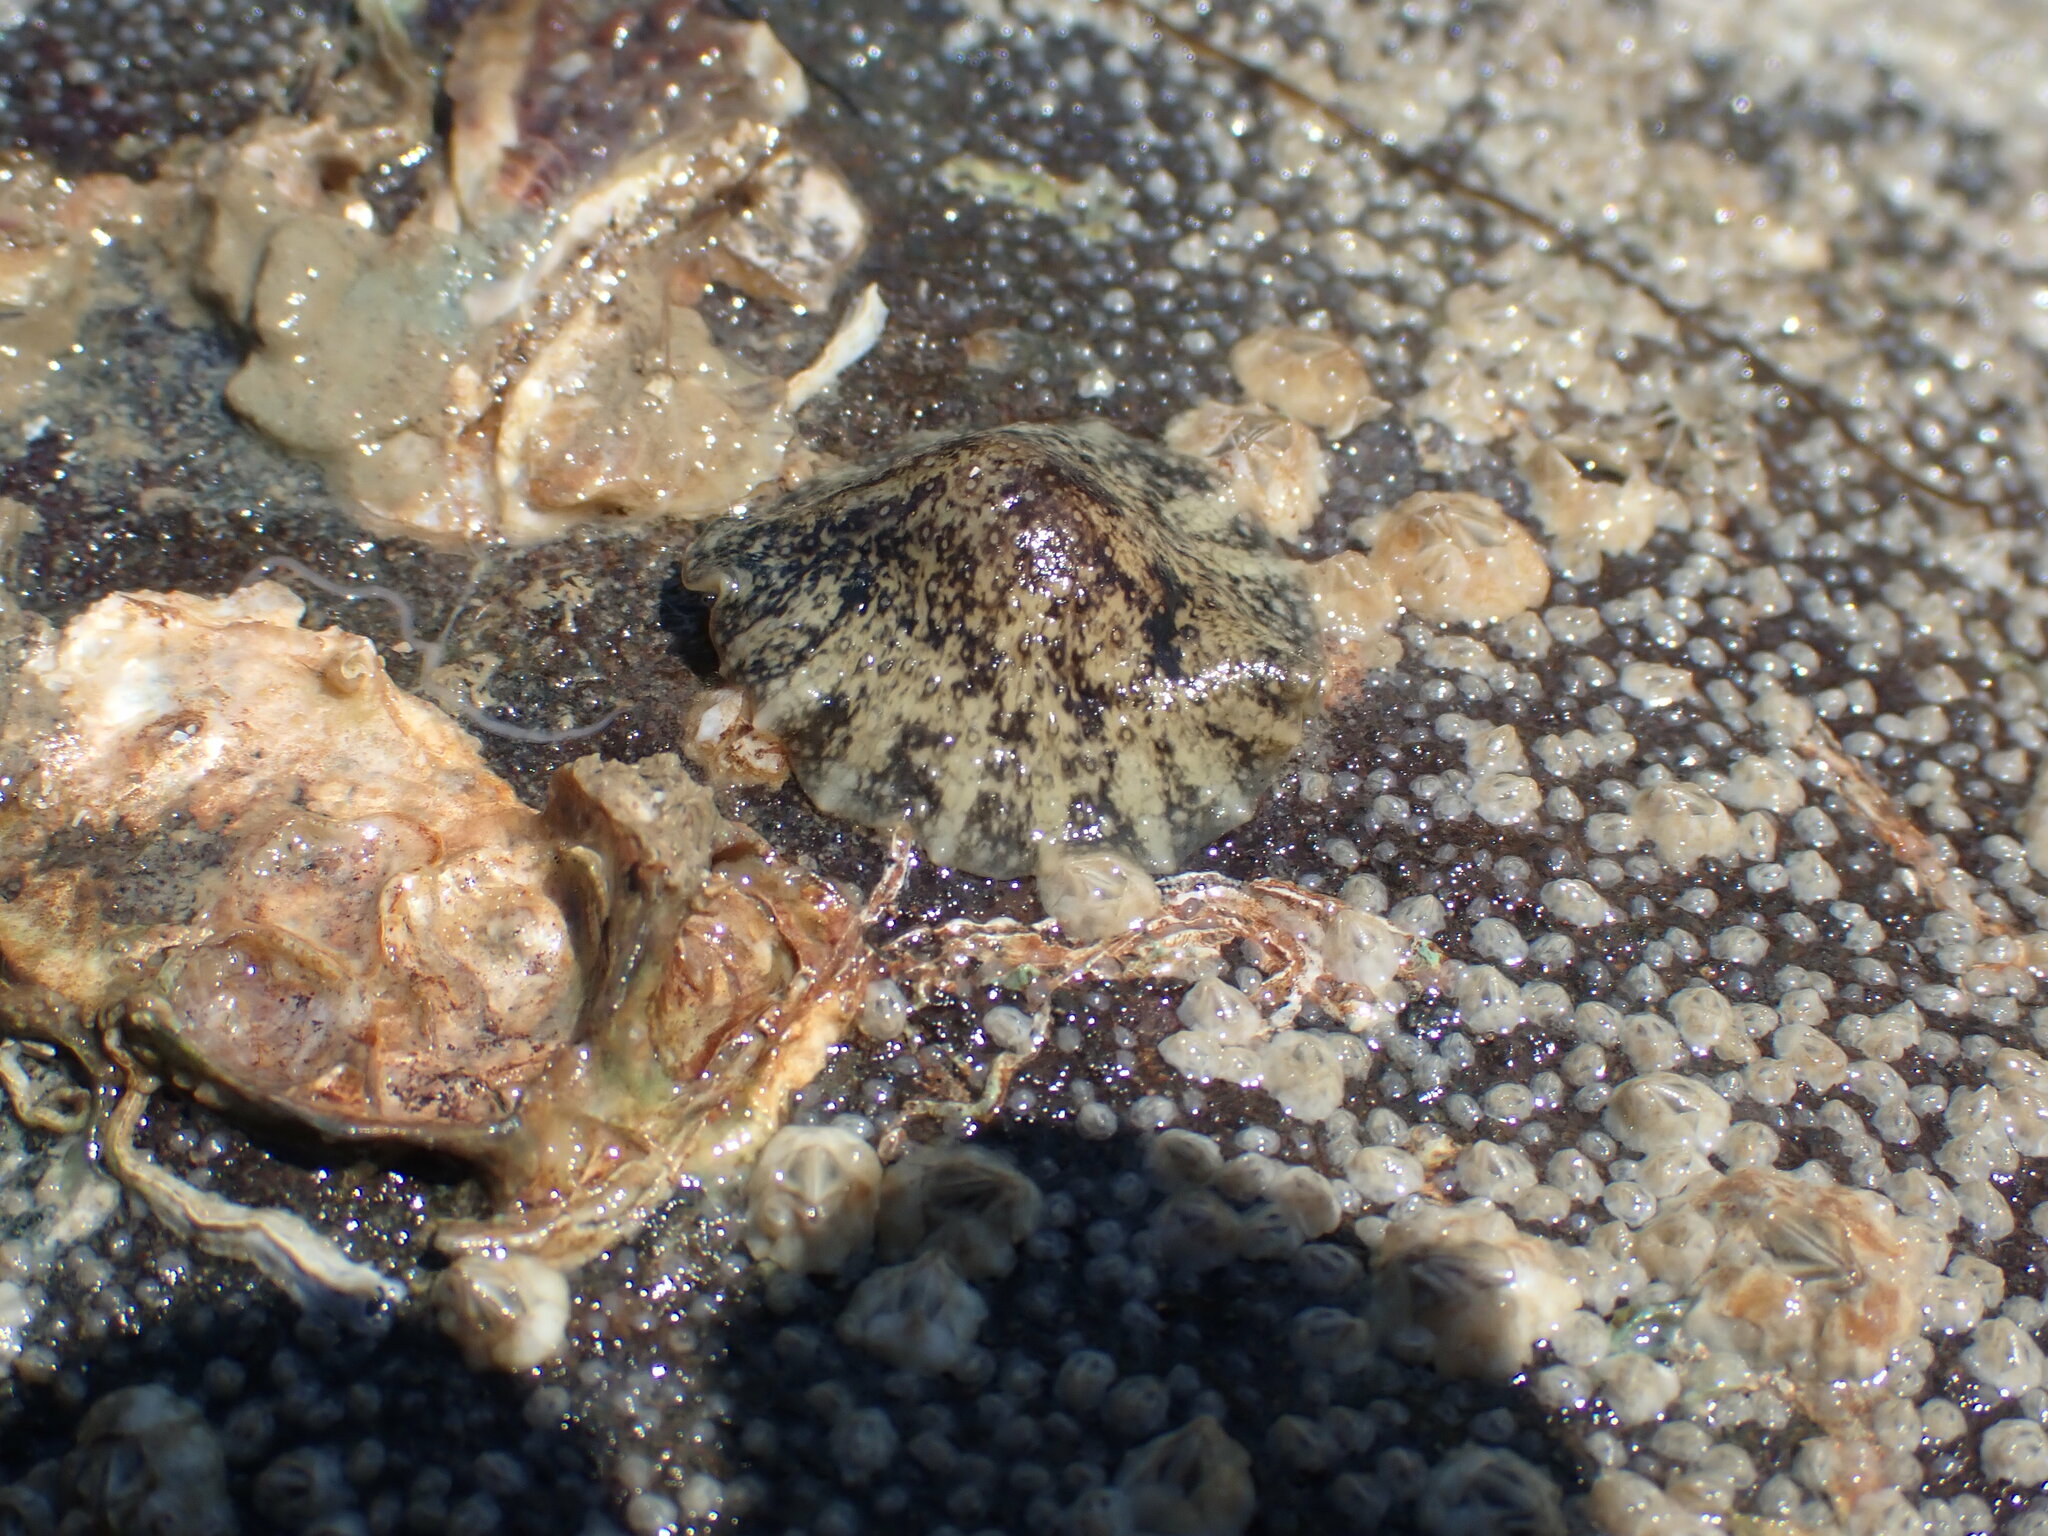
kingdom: Animalia
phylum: Mollusca
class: Gastropoda
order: Systellommatophora
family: Onchidiidae
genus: Onchidella
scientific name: Onchidella nigricans
